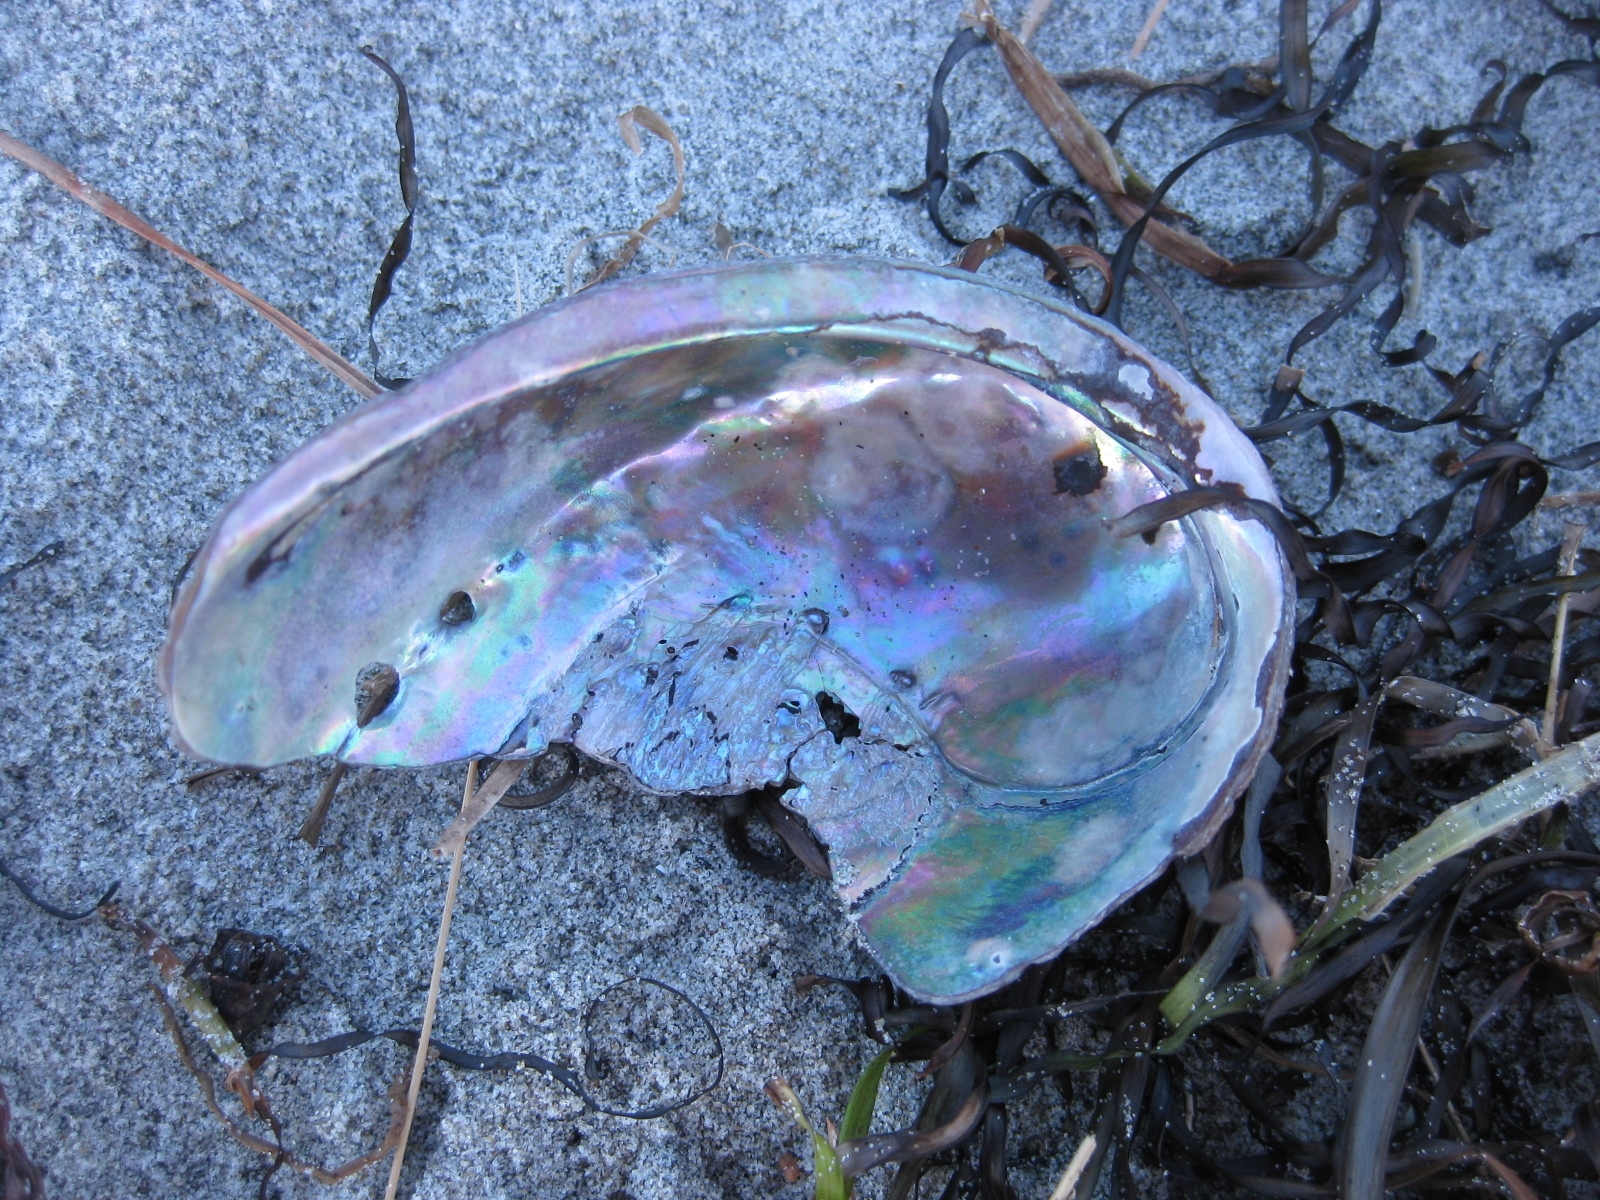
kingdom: Animalia
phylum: Mollusca
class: Gastropoda
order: Lepetellida
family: Haliotidae
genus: Haliotis
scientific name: Haliotis iris
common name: Abalone
